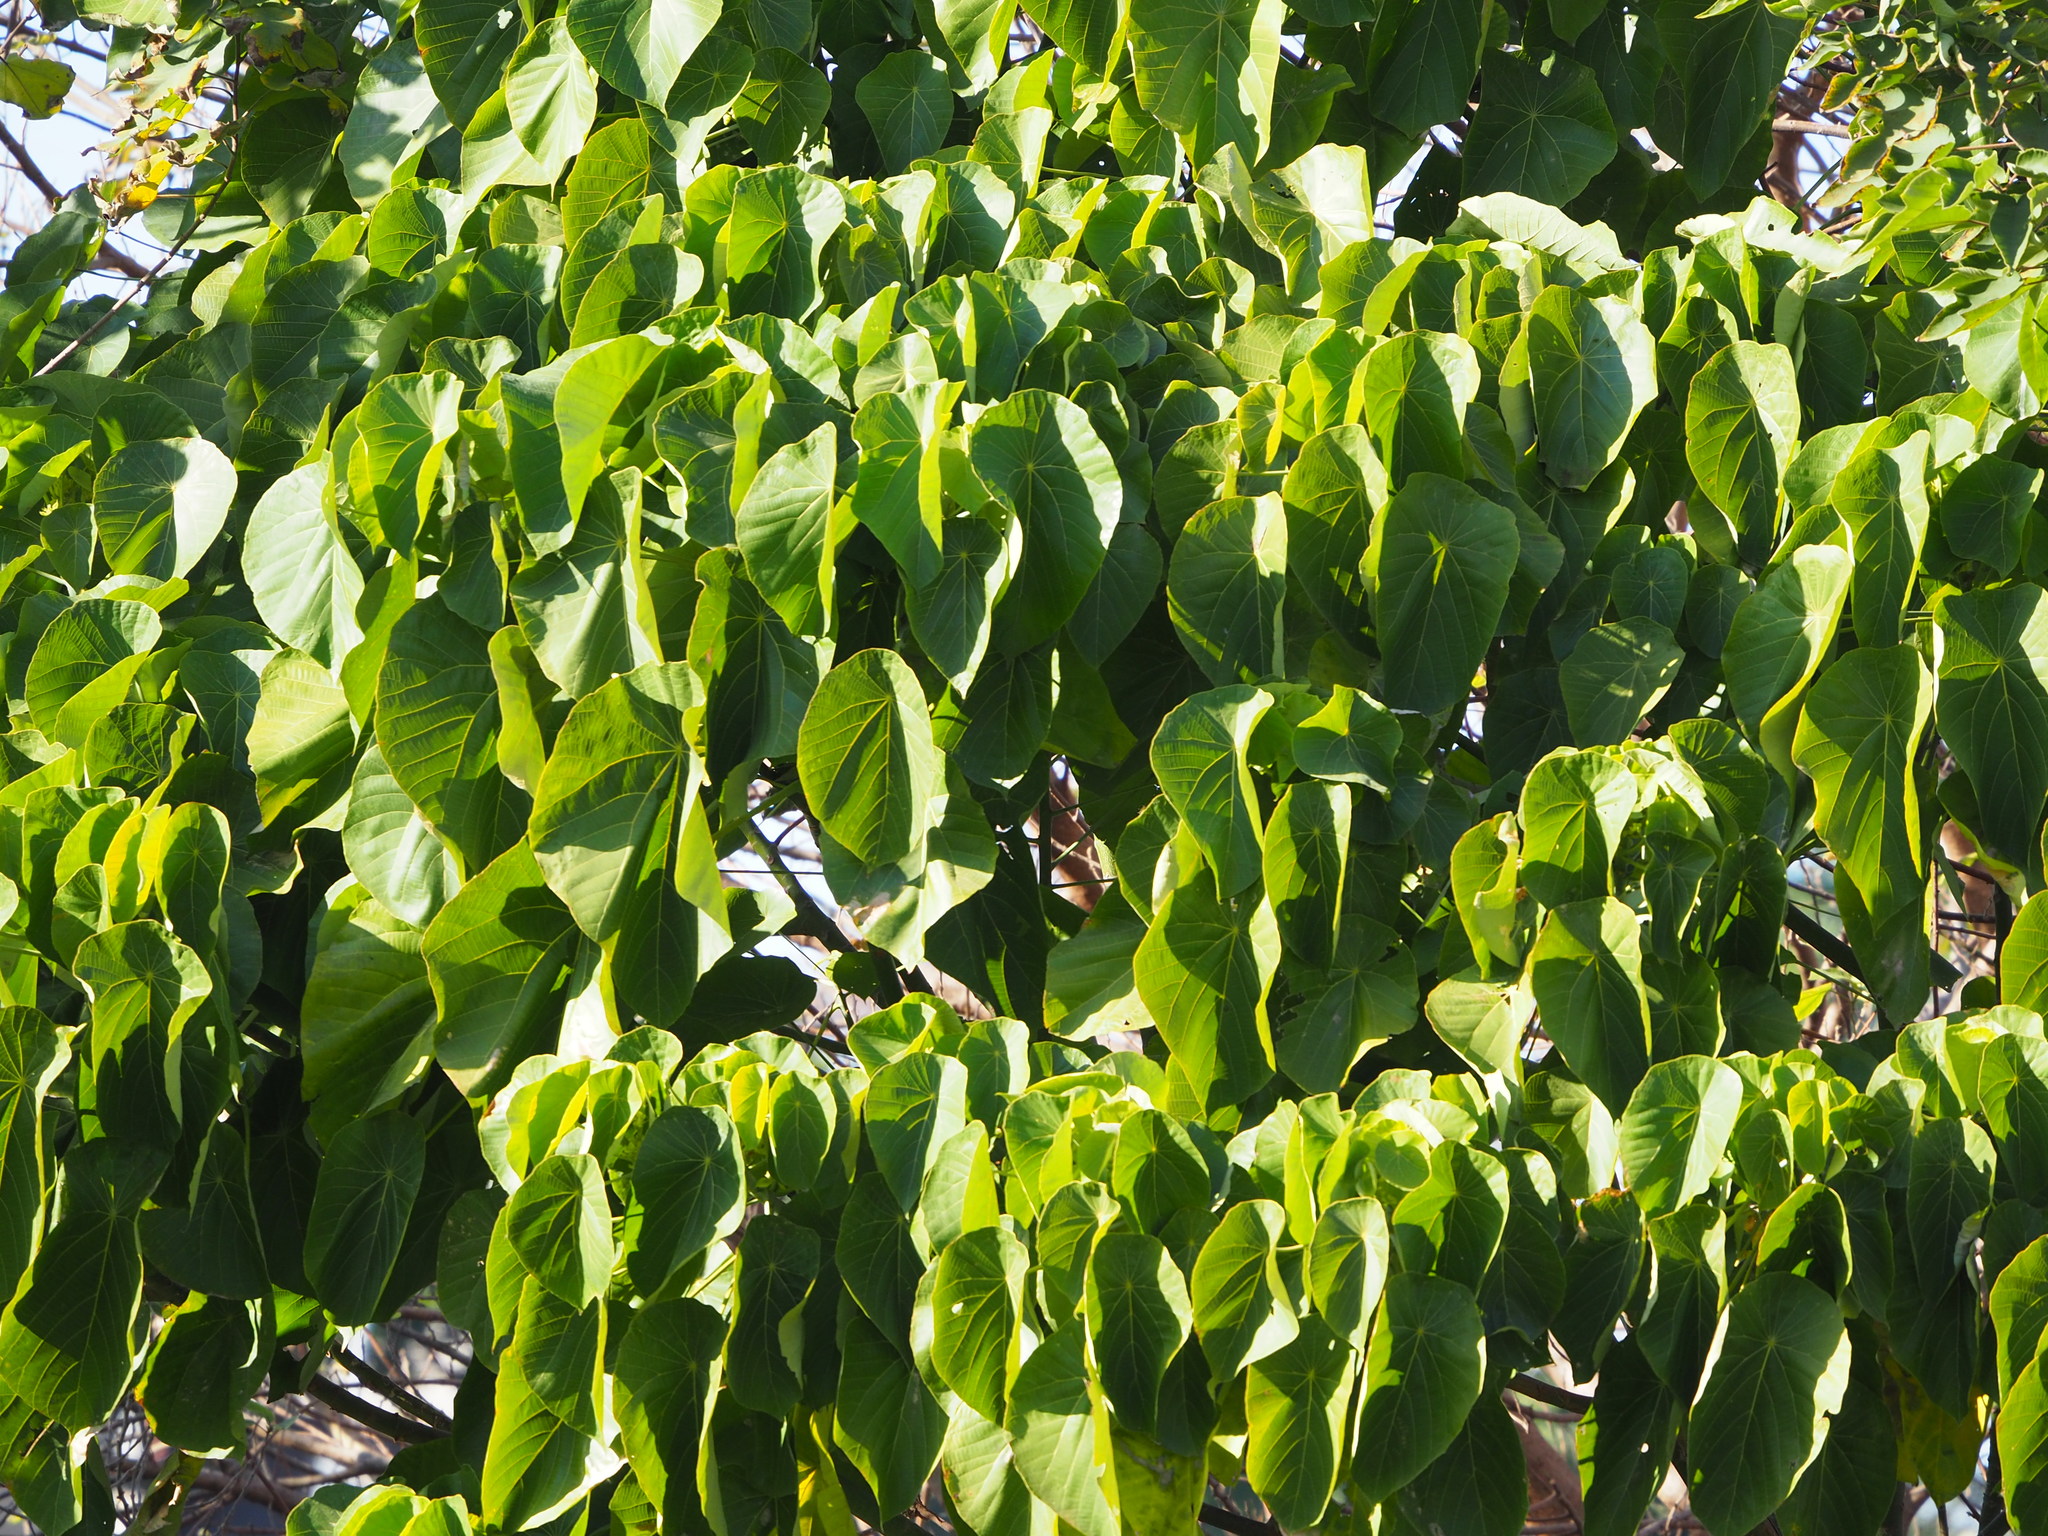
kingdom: Plantae
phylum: Tracheophyta
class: Magnoliopsida
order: Malpighiales
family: Euphorbiaceae
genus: Macaranga
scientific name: Macaranga tanarius
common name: Parasol leaf tree
